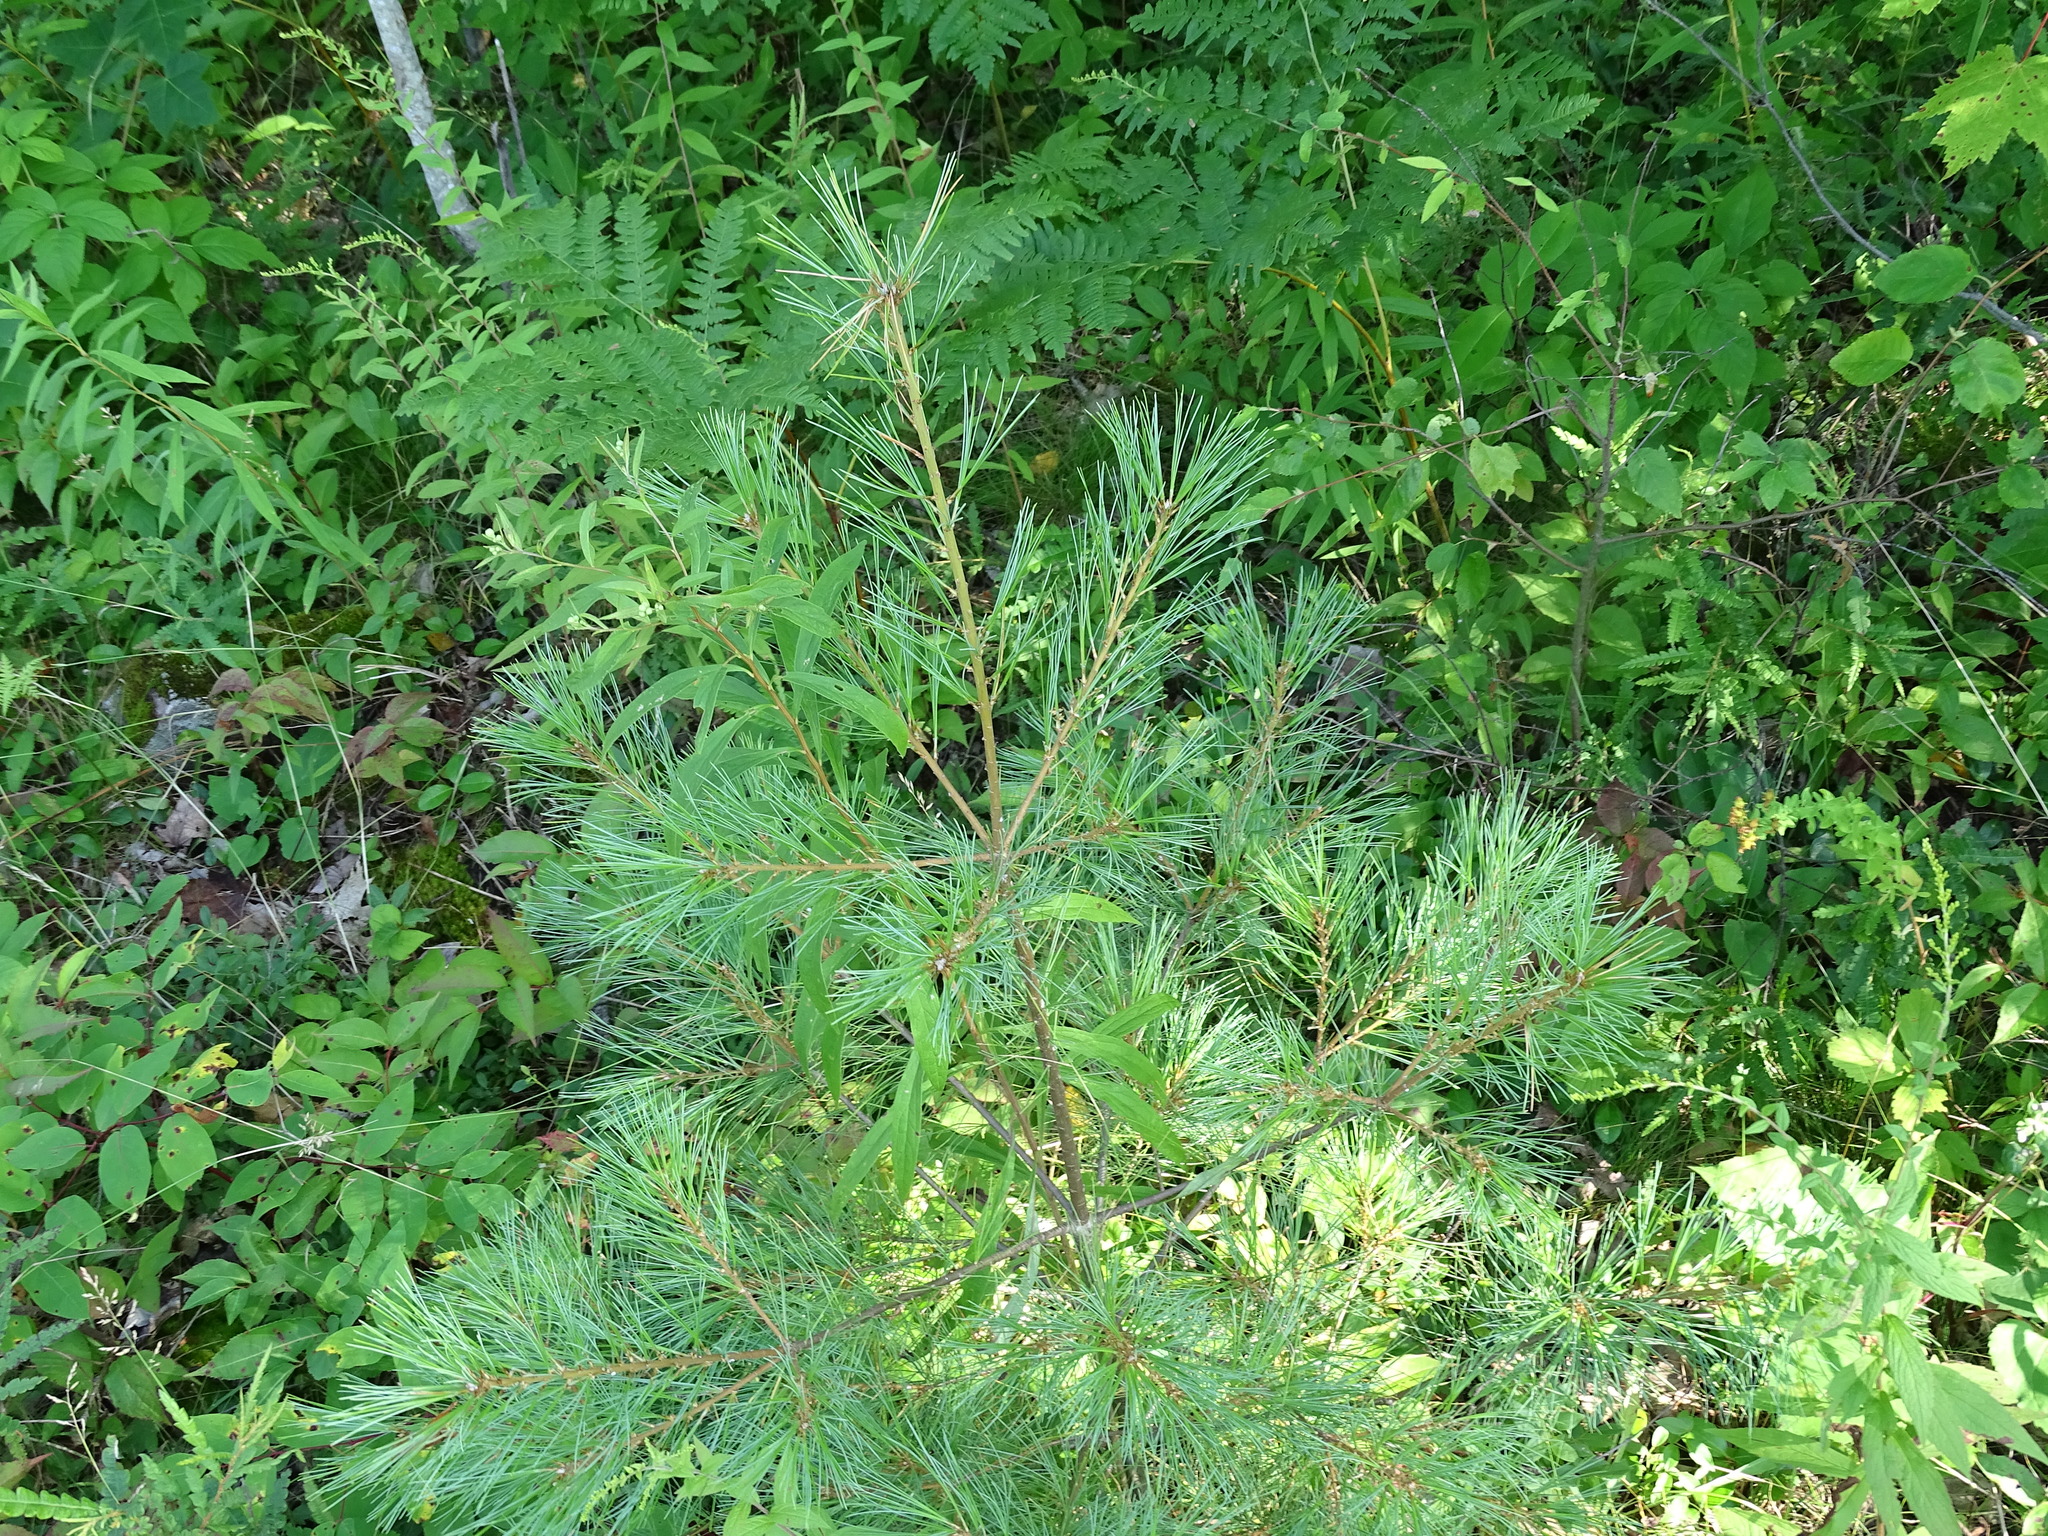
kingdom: Plantae
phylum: Tracheophyta
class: Pinopsida
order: Pinales
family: Pinaceae
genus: Pinus
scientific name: Pinus strobus
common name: Weymouth pine
